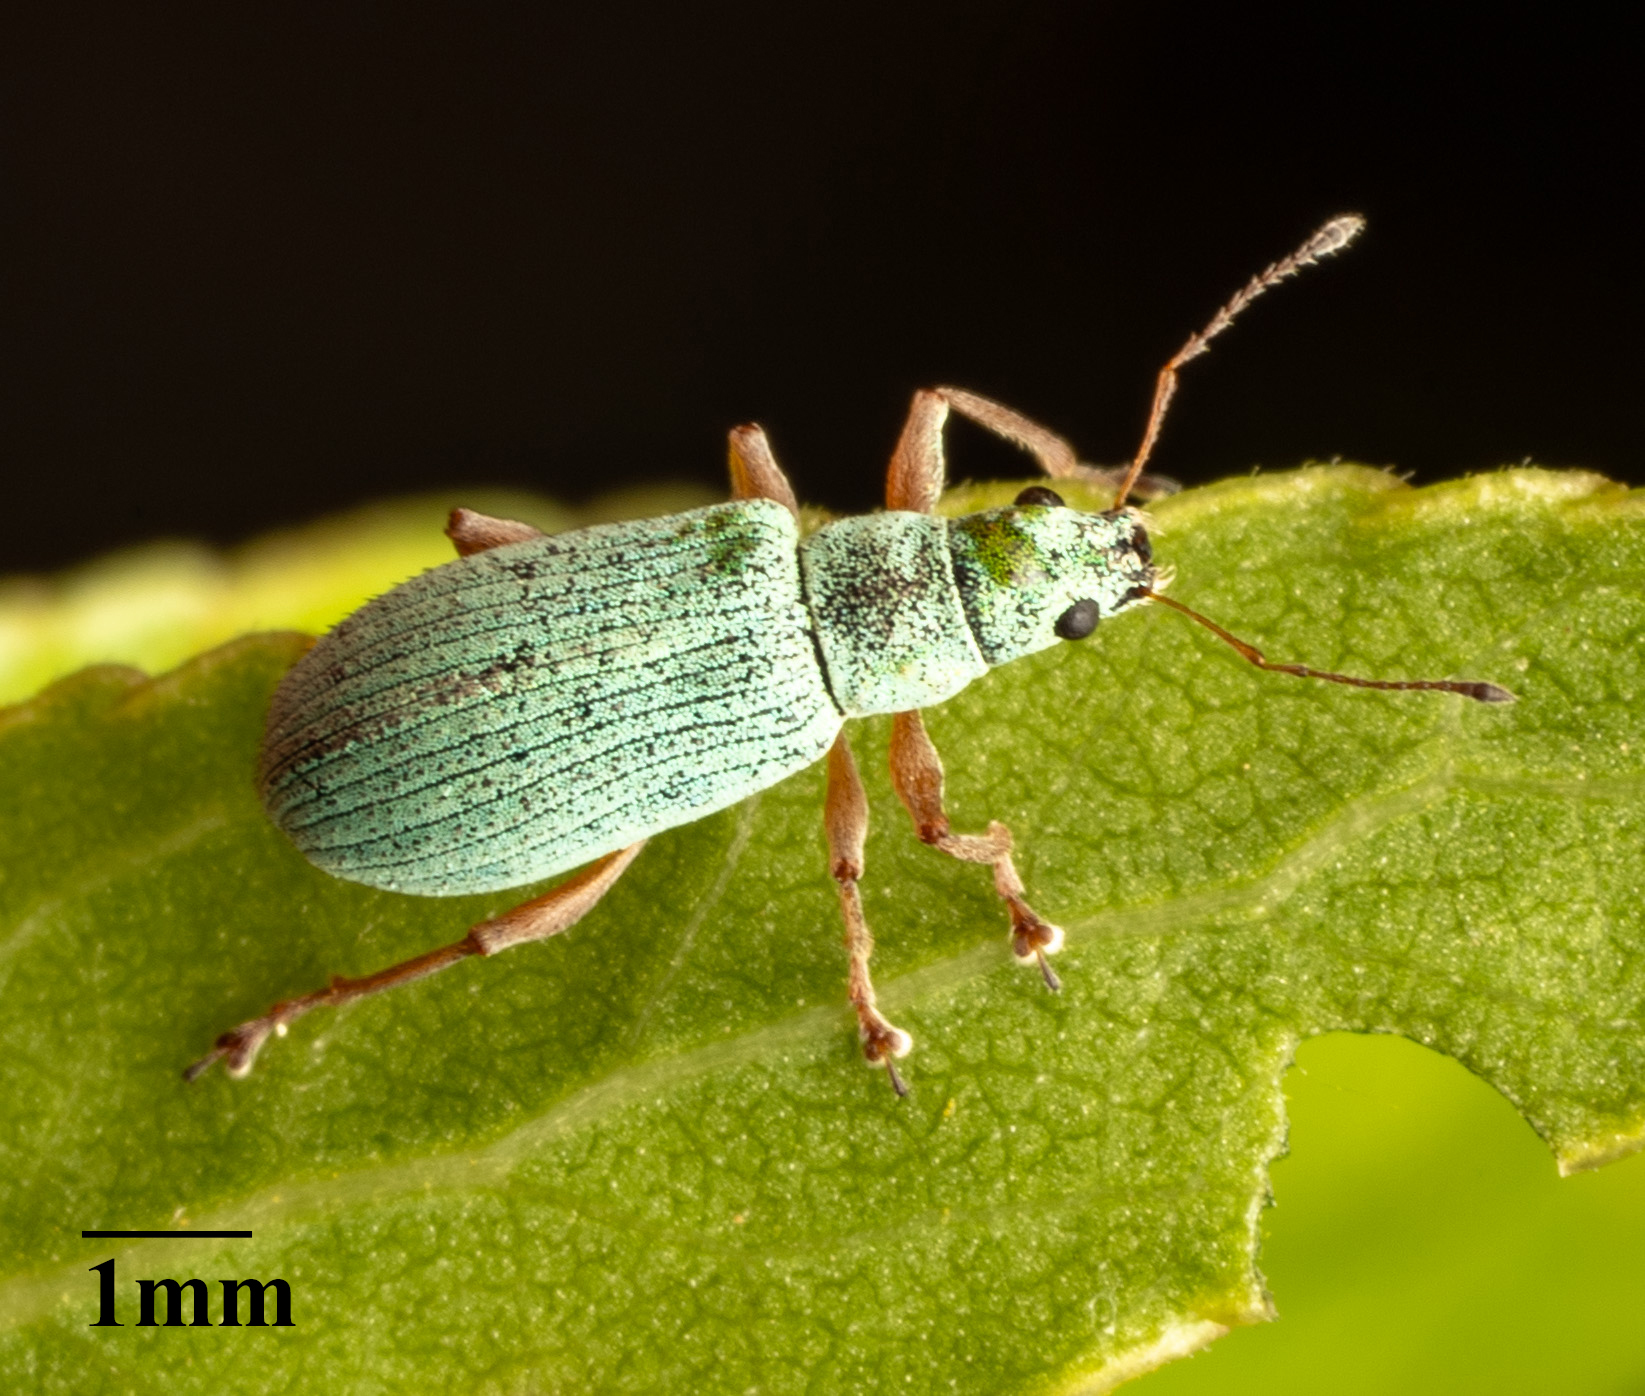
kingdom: Animalia
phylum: Arthropoda
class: Insecta
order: Coleoptera
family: Curculionidae
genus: Polydrusus
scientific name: Polydrusus impressifrons
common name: Weevil
